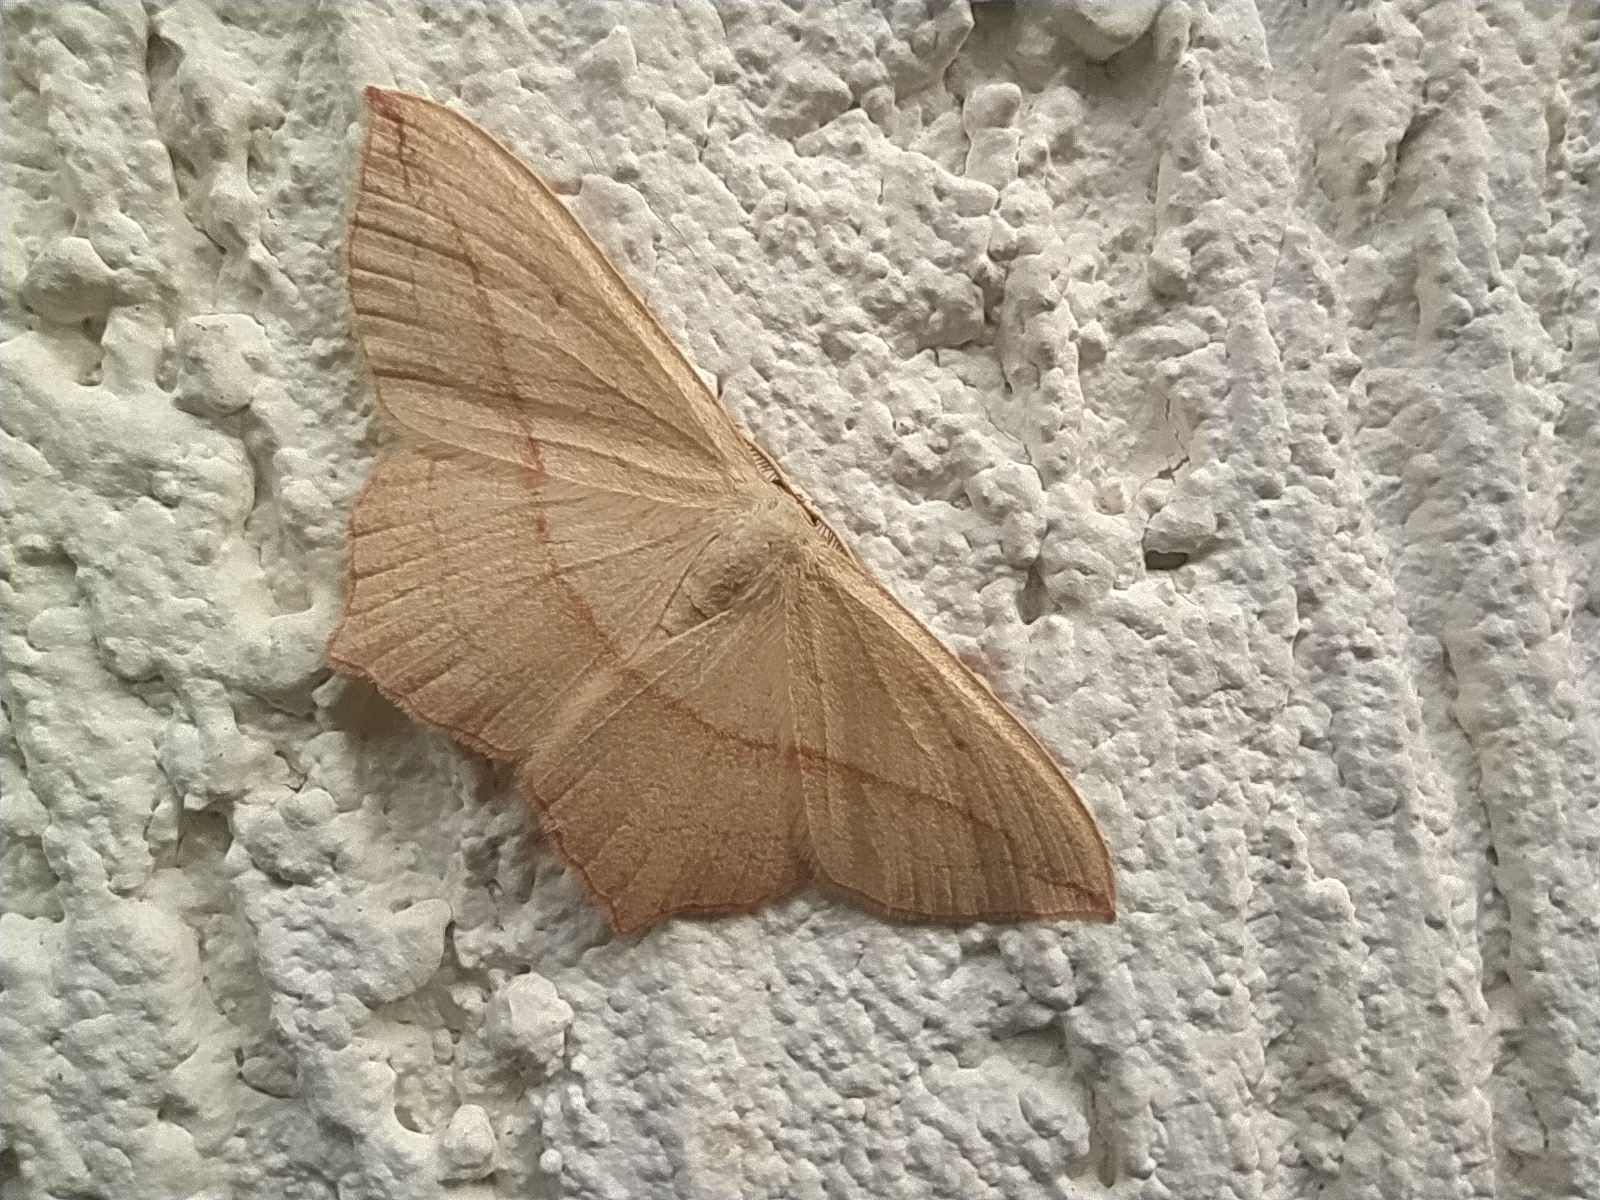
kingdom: Animalia
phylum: Arthropoda
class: Insecta
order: Lepidoptera
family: Geometridae
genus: Timandra
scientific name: Timandra comae
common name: Blood-vein
